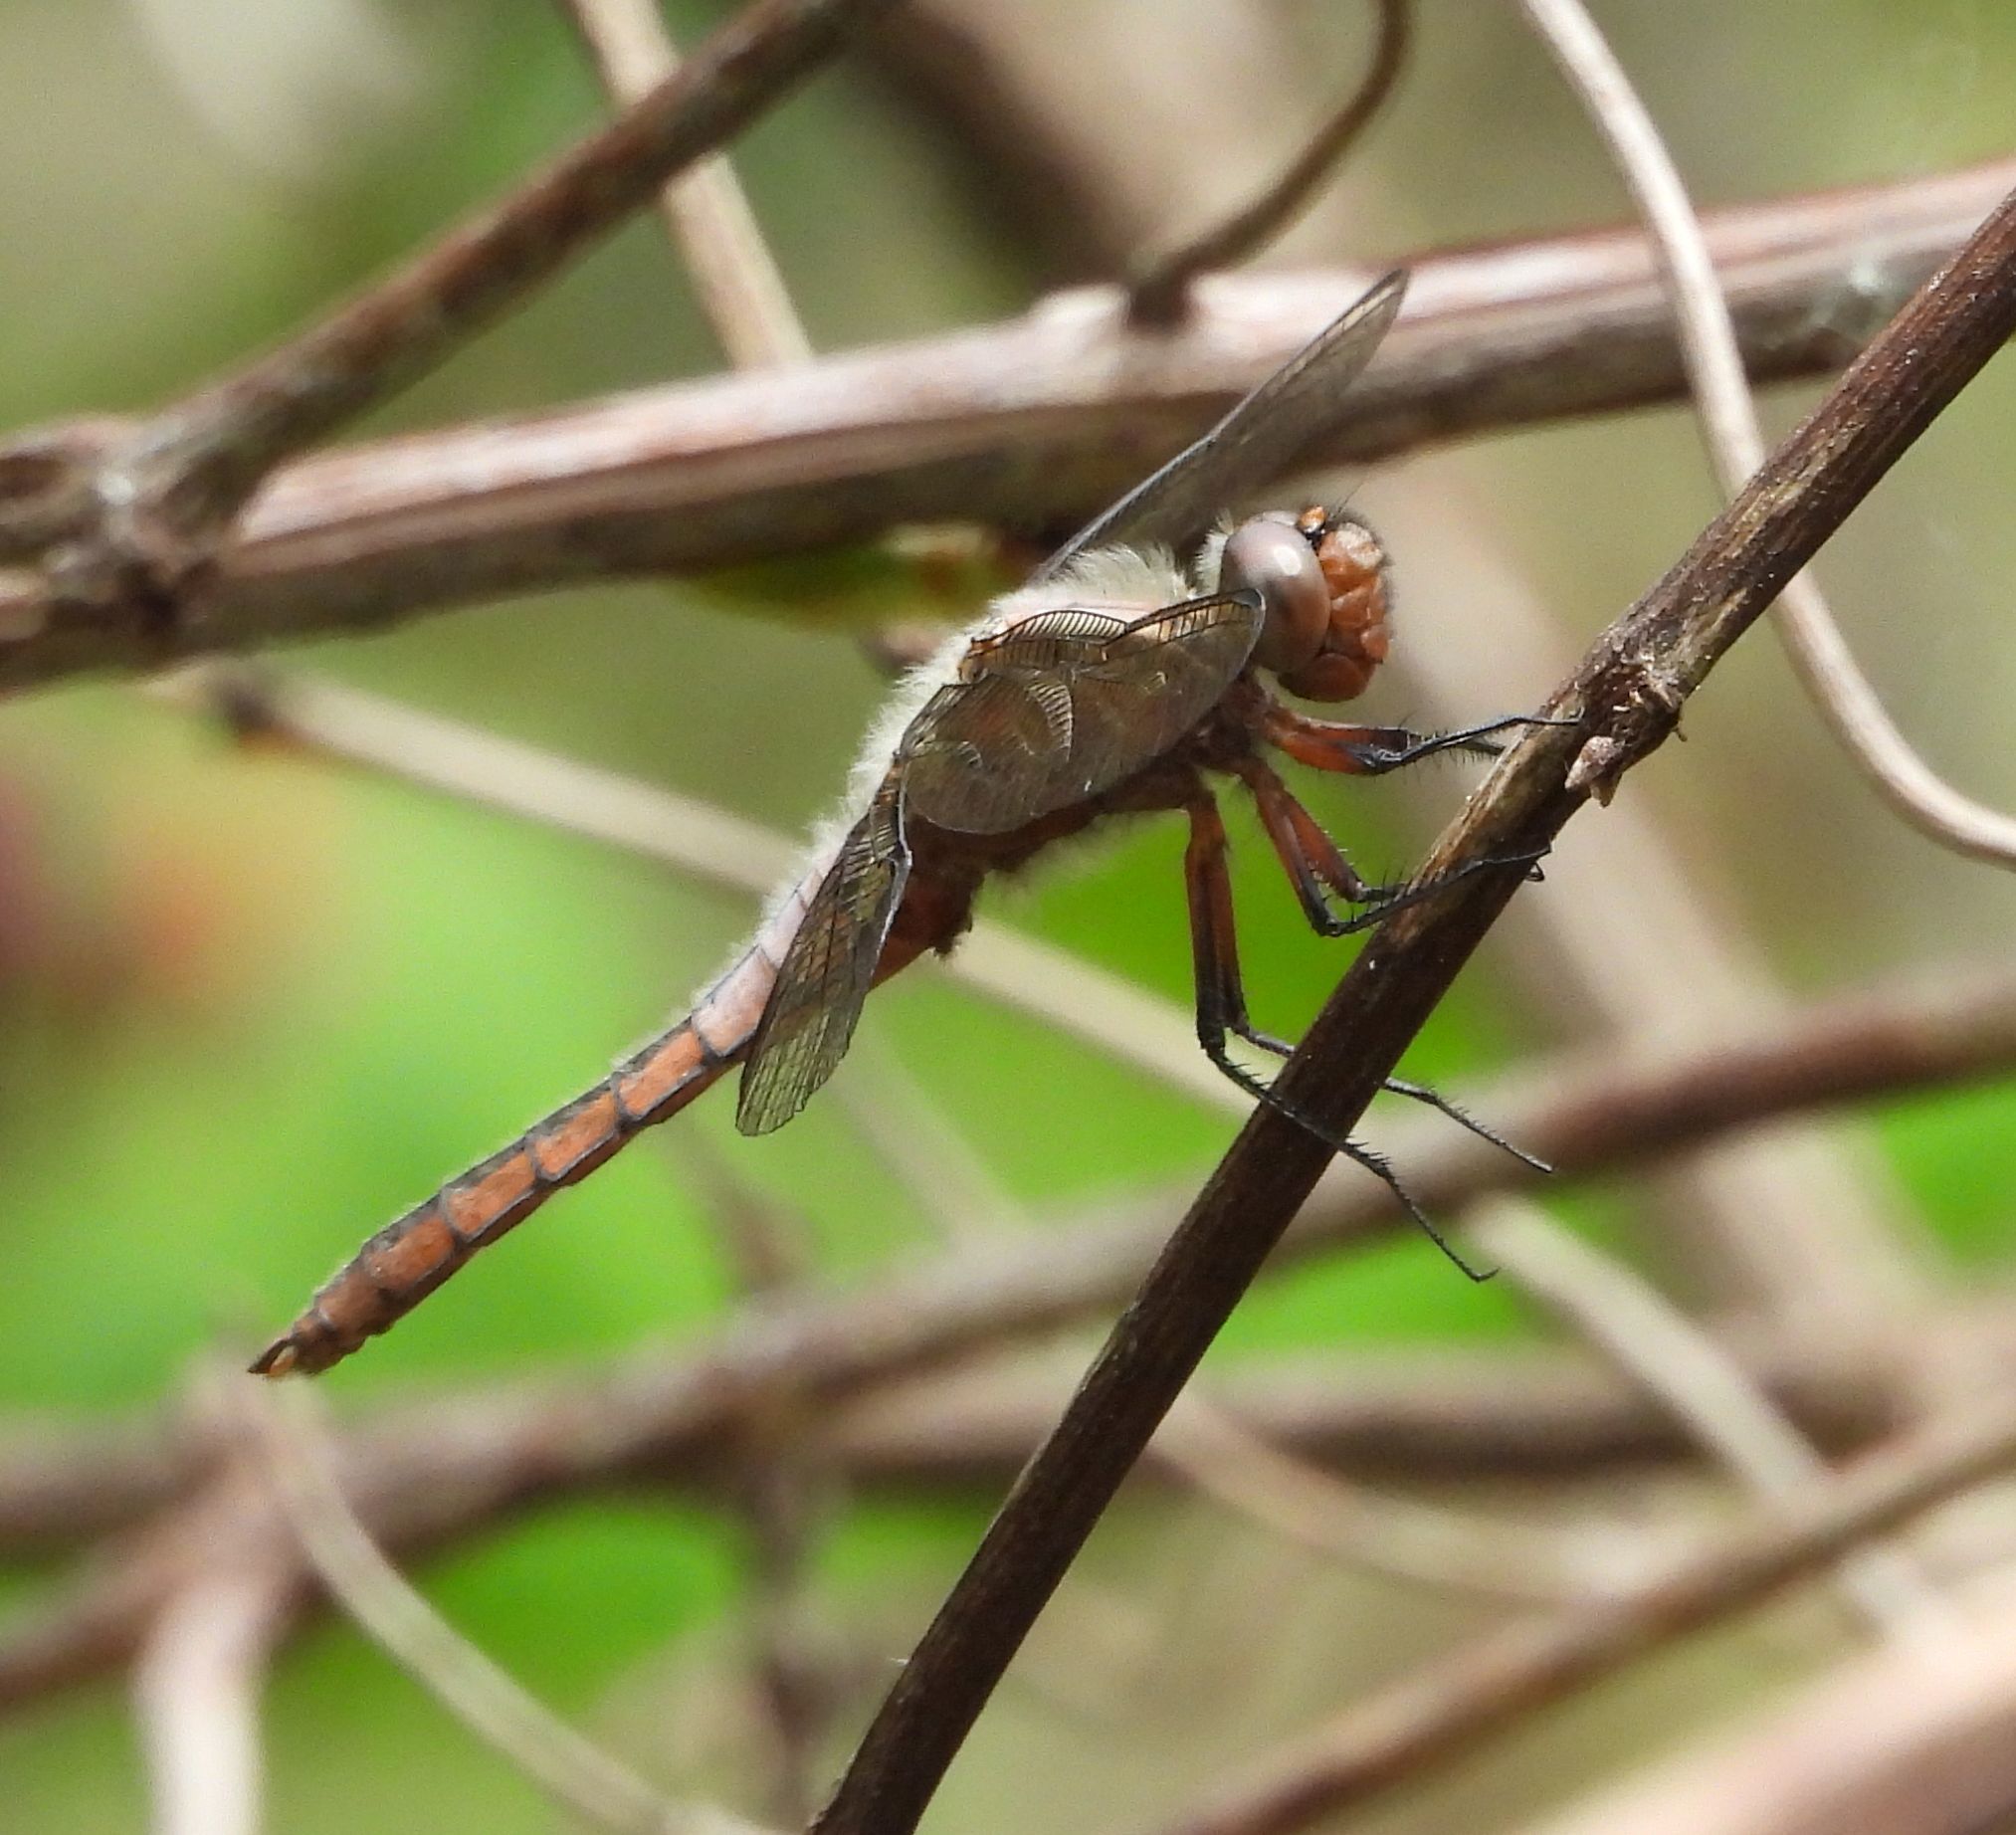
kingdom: Animalia
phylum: Arthropoda
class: Insecta
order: Odonata
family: Libellulidae
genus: Ladona
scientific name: Ladona julia
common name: Chalk-fronted corporal
